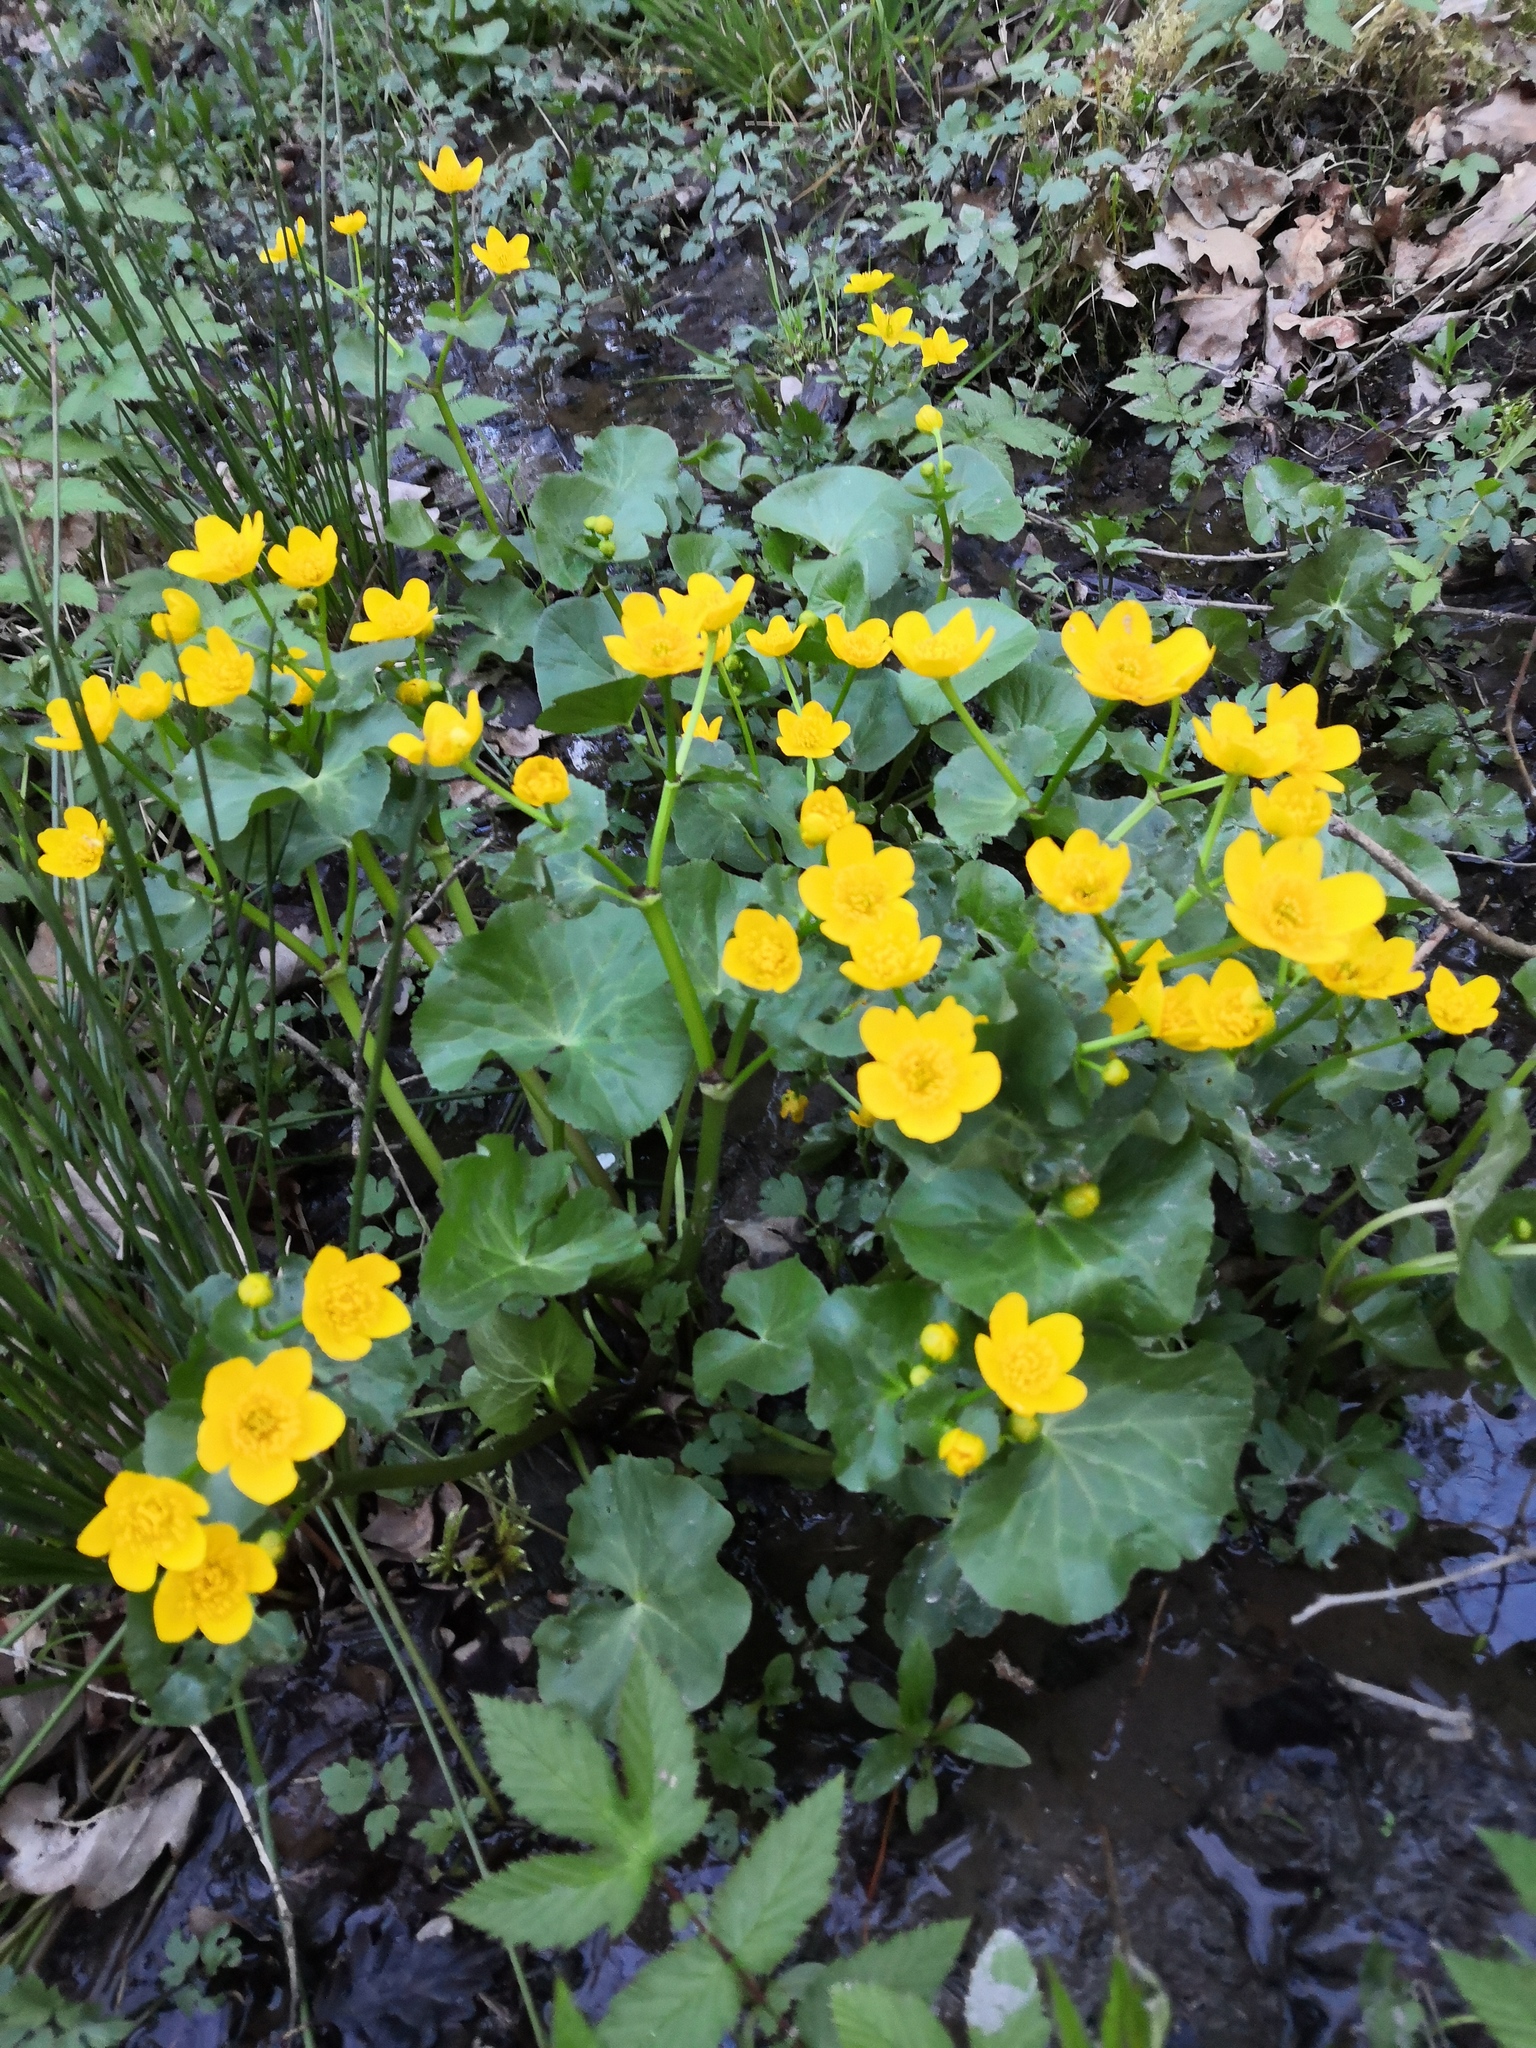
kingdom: Plantae
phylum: Tracheophyta
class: Magnoliopsida
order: Ranunculales
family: Ranunculaceae
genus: Caltha
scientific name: Caltha palustris
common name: Marsh marigold
